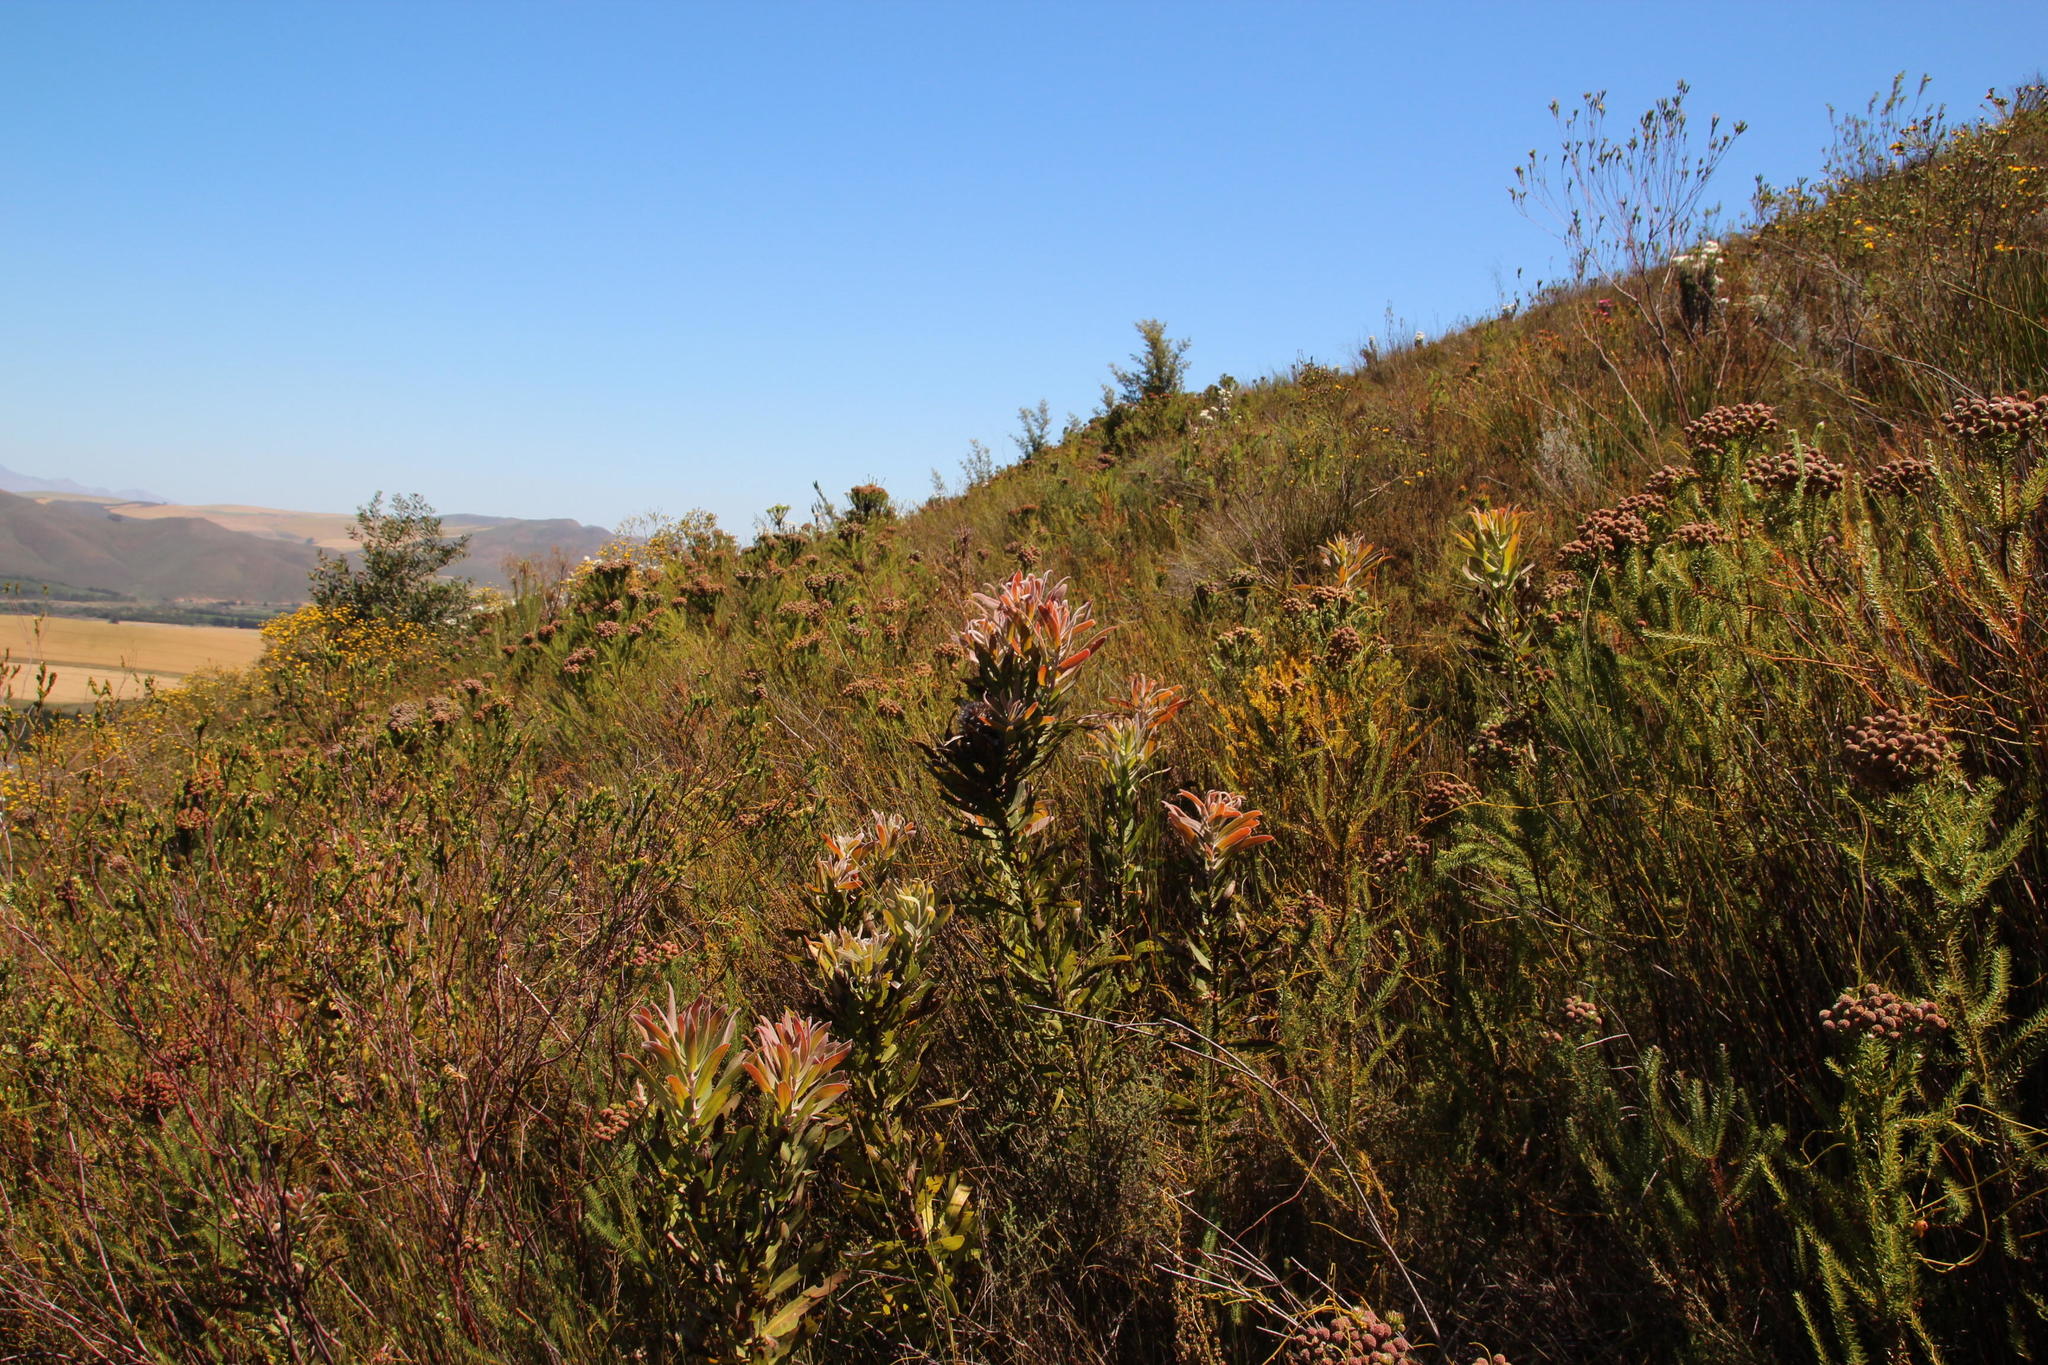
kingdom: Plantae
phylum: Tracheophyta
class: Magnoliopsida
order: Proteales
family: Proteaceae
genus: Protea
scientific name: Protea neriifolia
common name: Blue sugarbush
